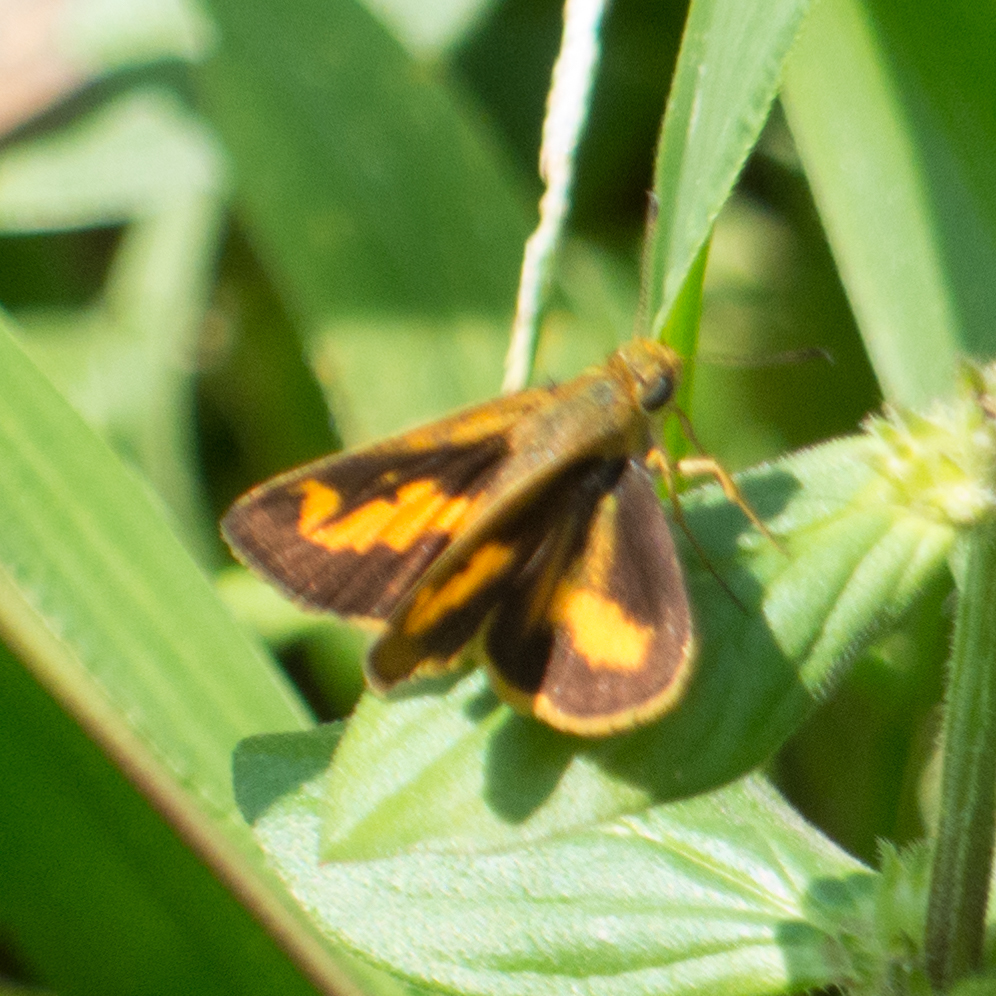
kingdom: Animalia
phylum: Arthropoda
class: Insecta
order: Lepidoptera
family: Hesperiidae
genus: Oriens
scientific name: Oriens gola
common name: Common dartlet
